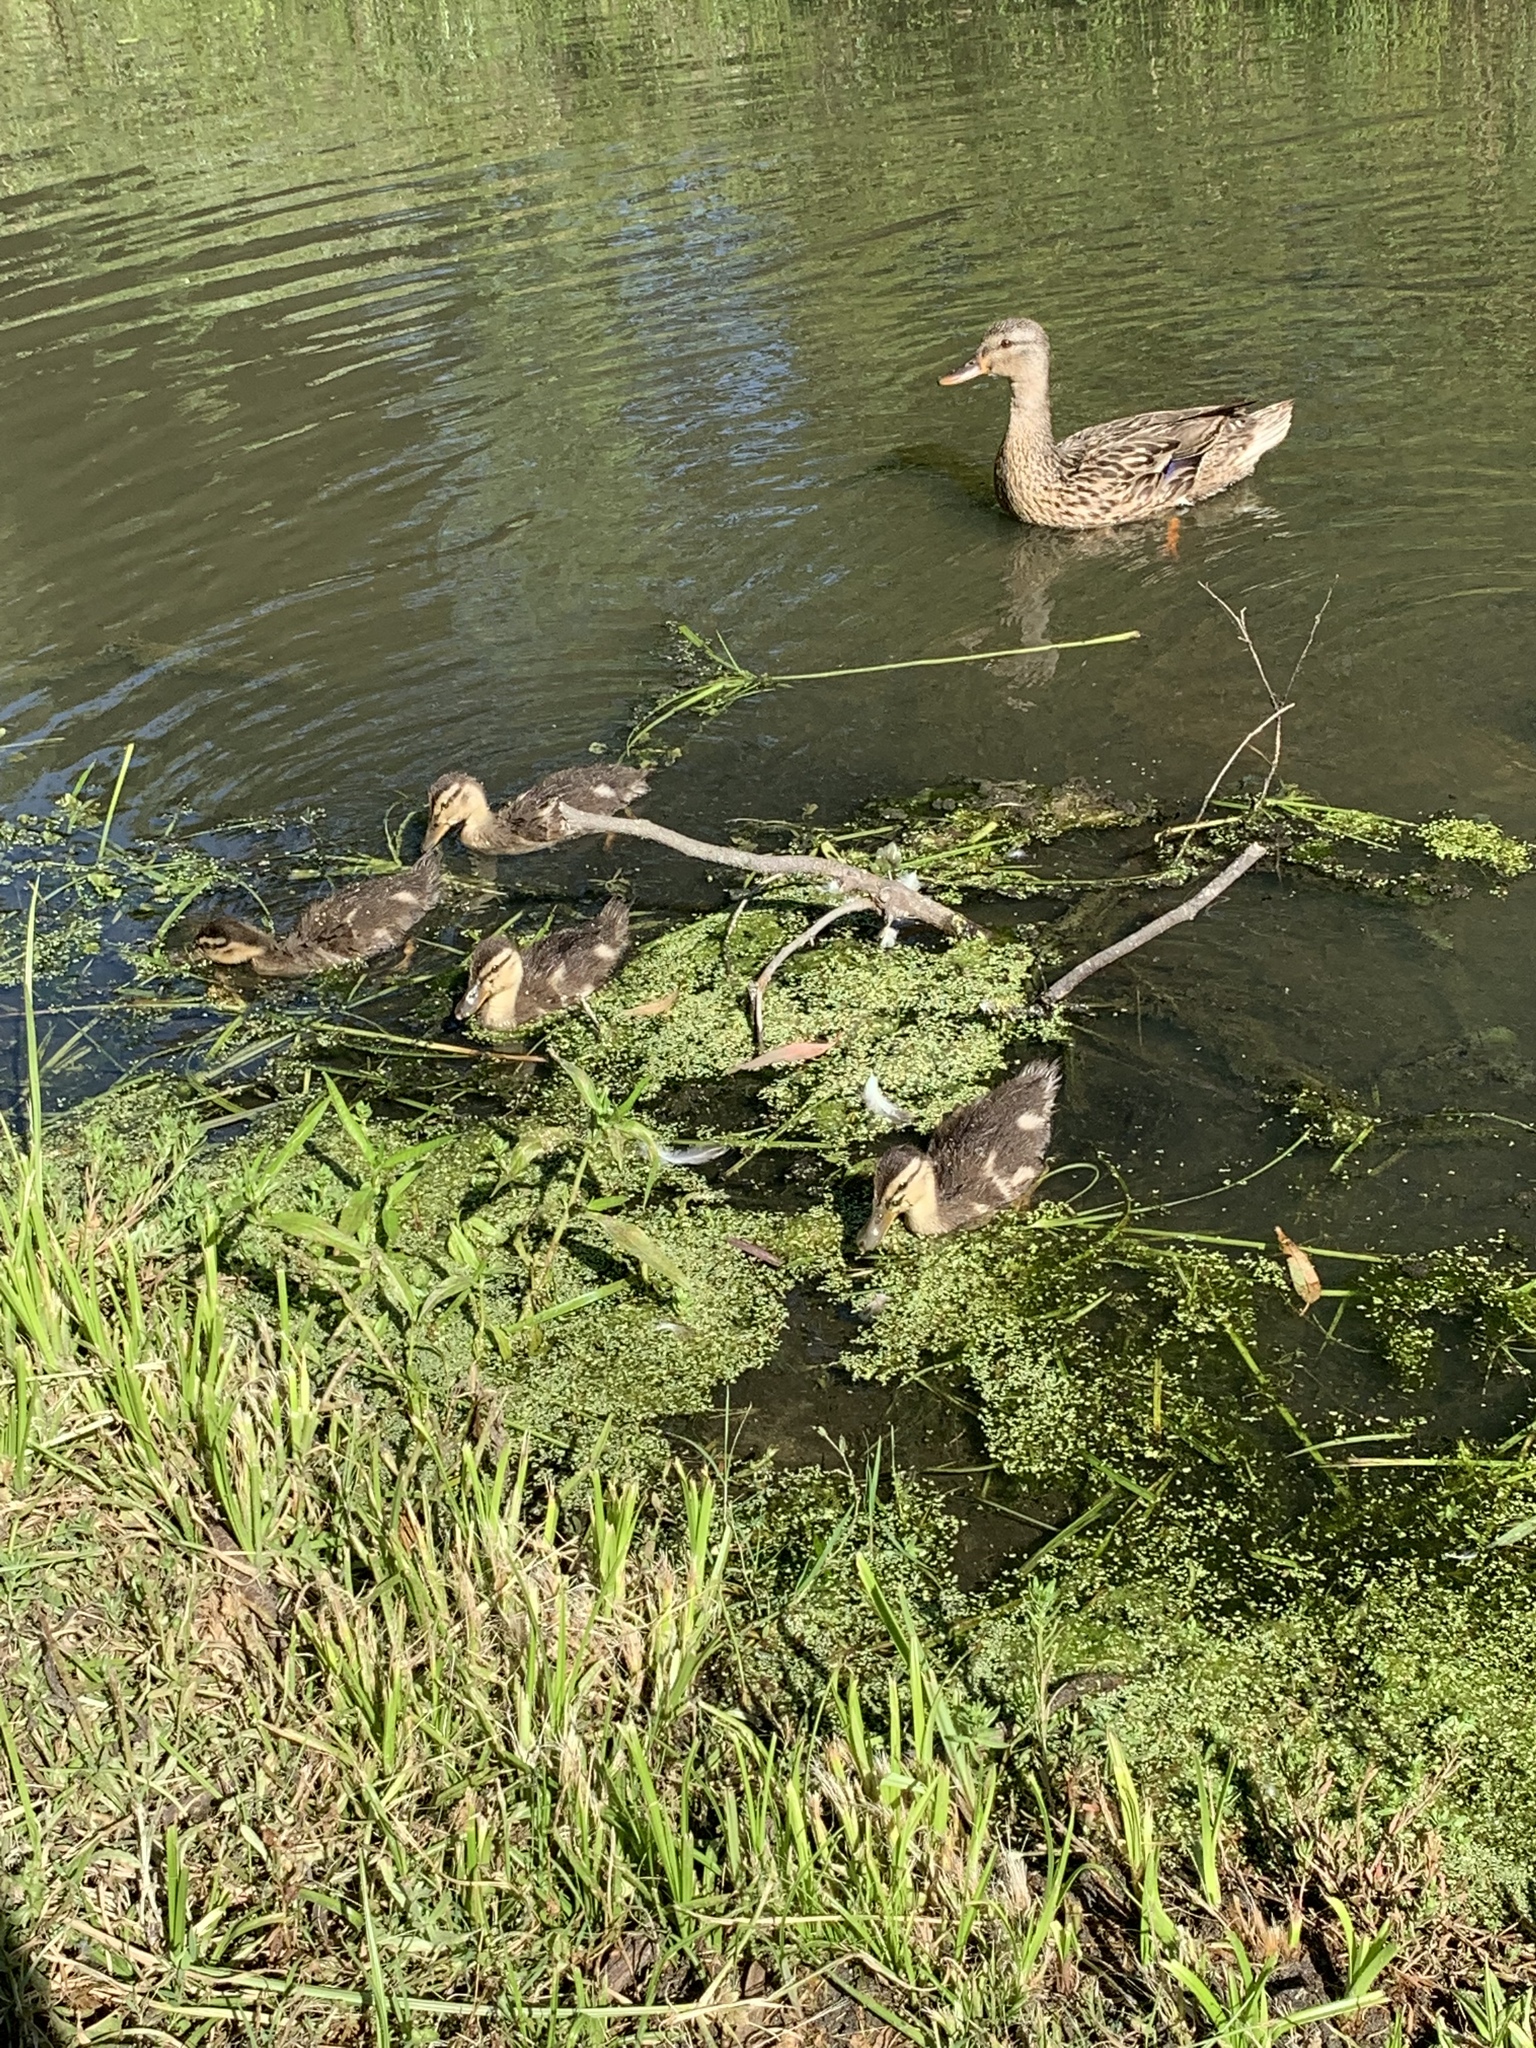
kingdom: Animalia
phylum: Chordata
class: Aves
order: Anseriformes
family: Anatidae
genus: Anas
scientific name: Anas platyrhynchos
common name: Mallard
